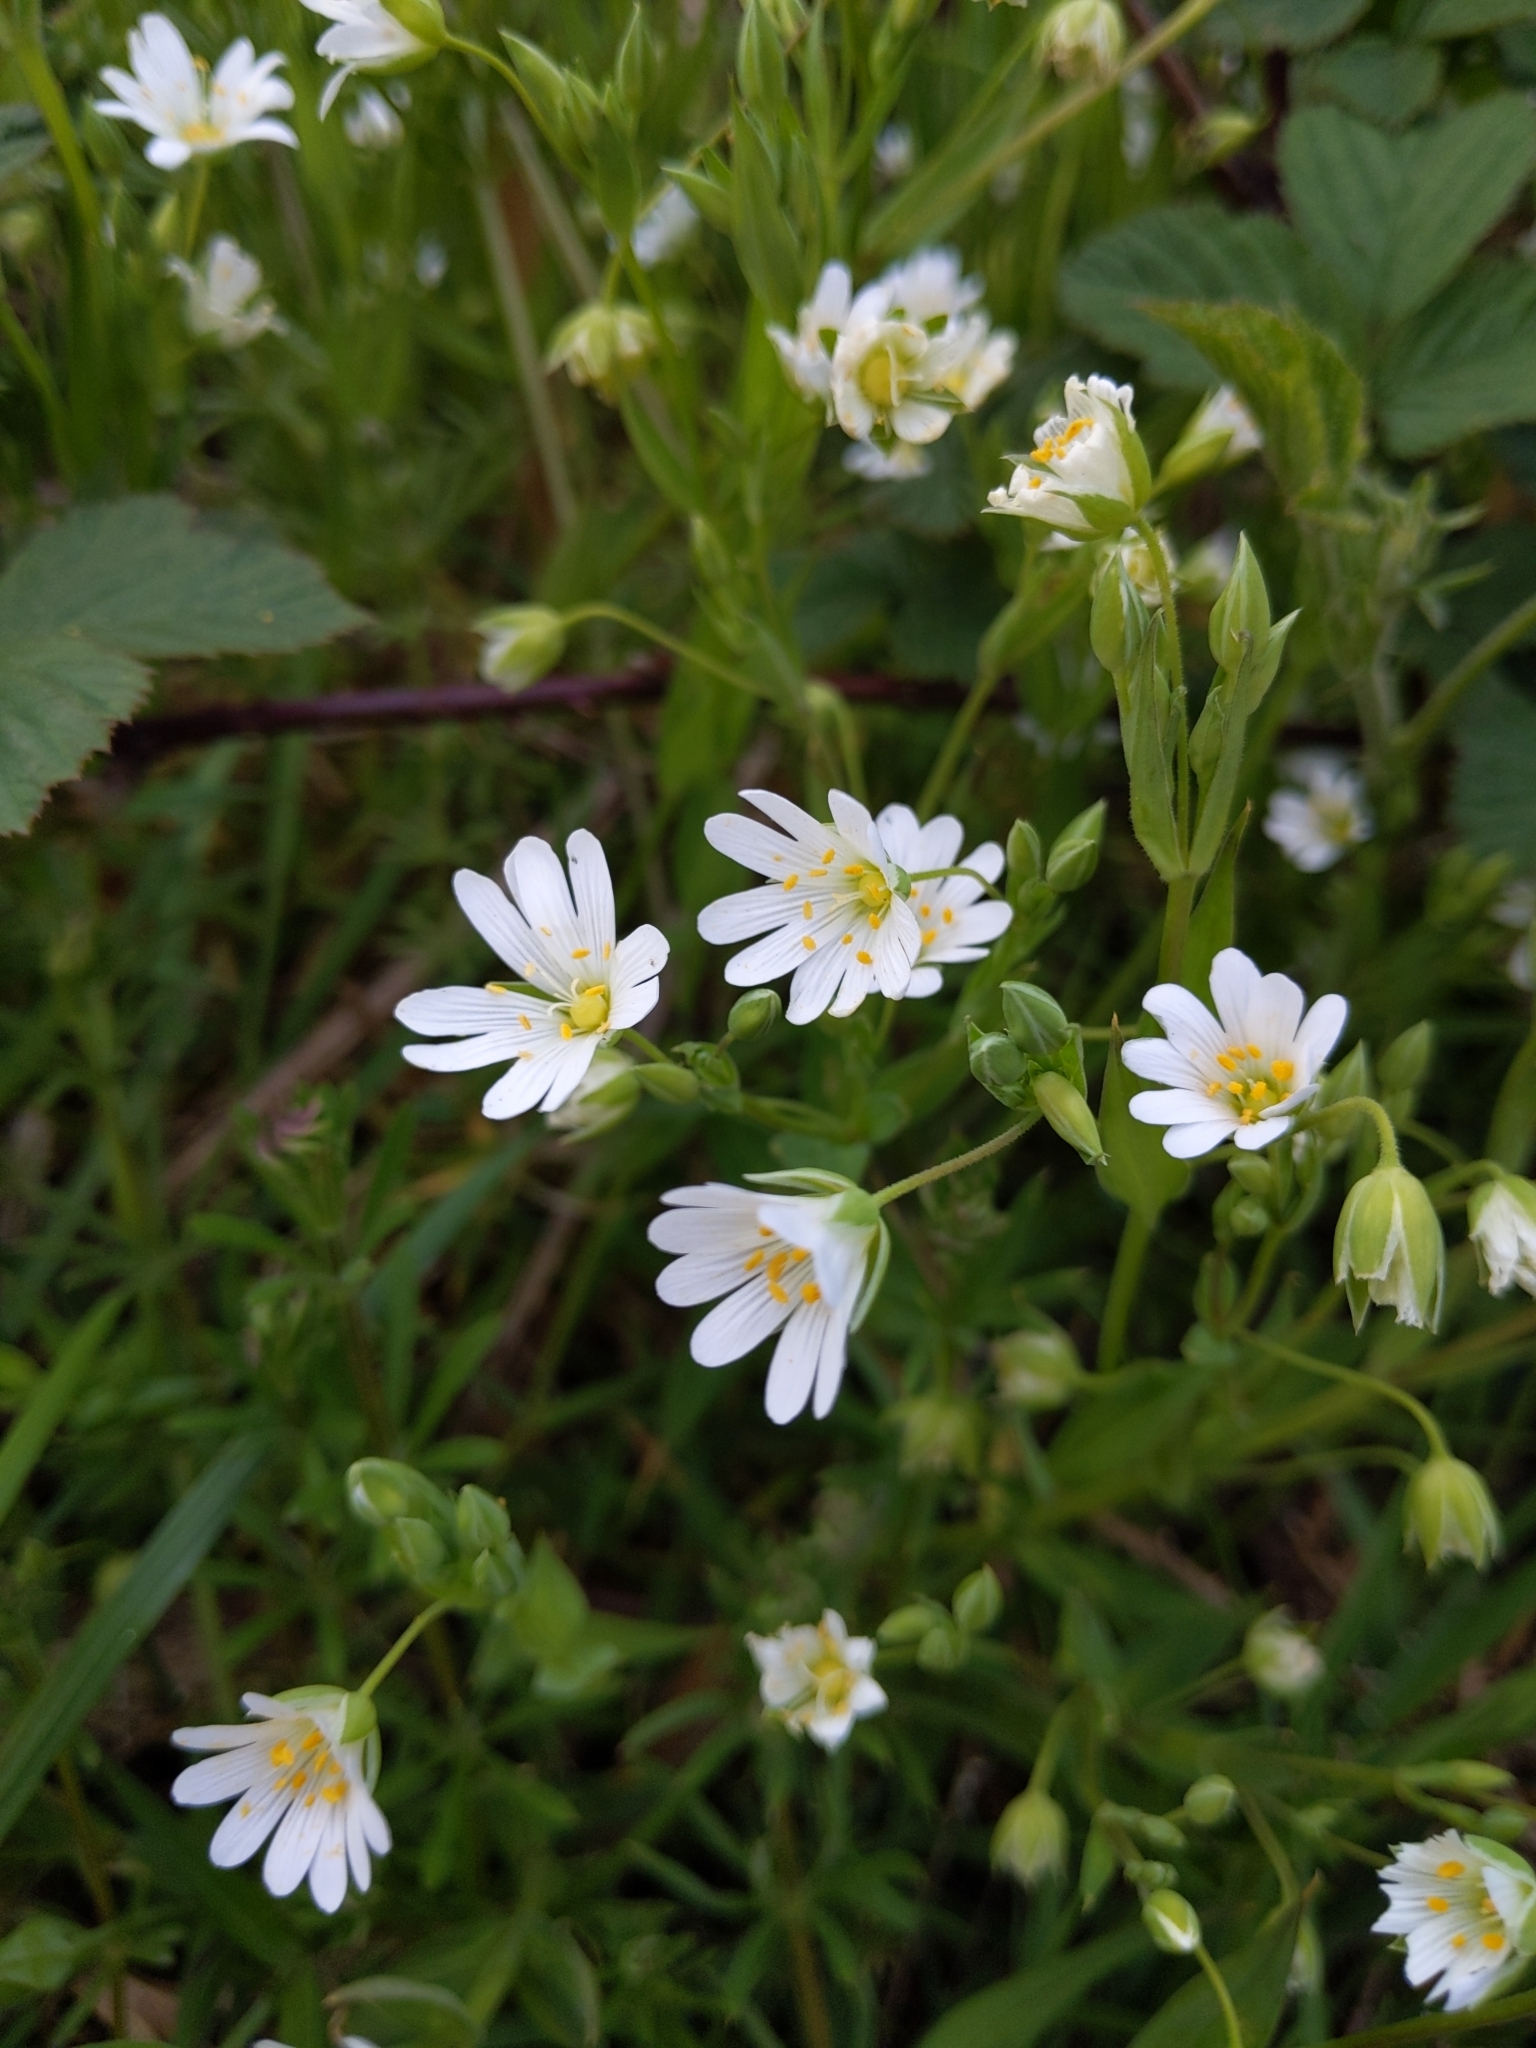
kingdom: Plantae
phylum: Tracheophyta
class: Magnoliopsida
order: Caryophyllales
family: Caryophyllaceae
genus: Rabelera
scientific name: Rabelera holostea
